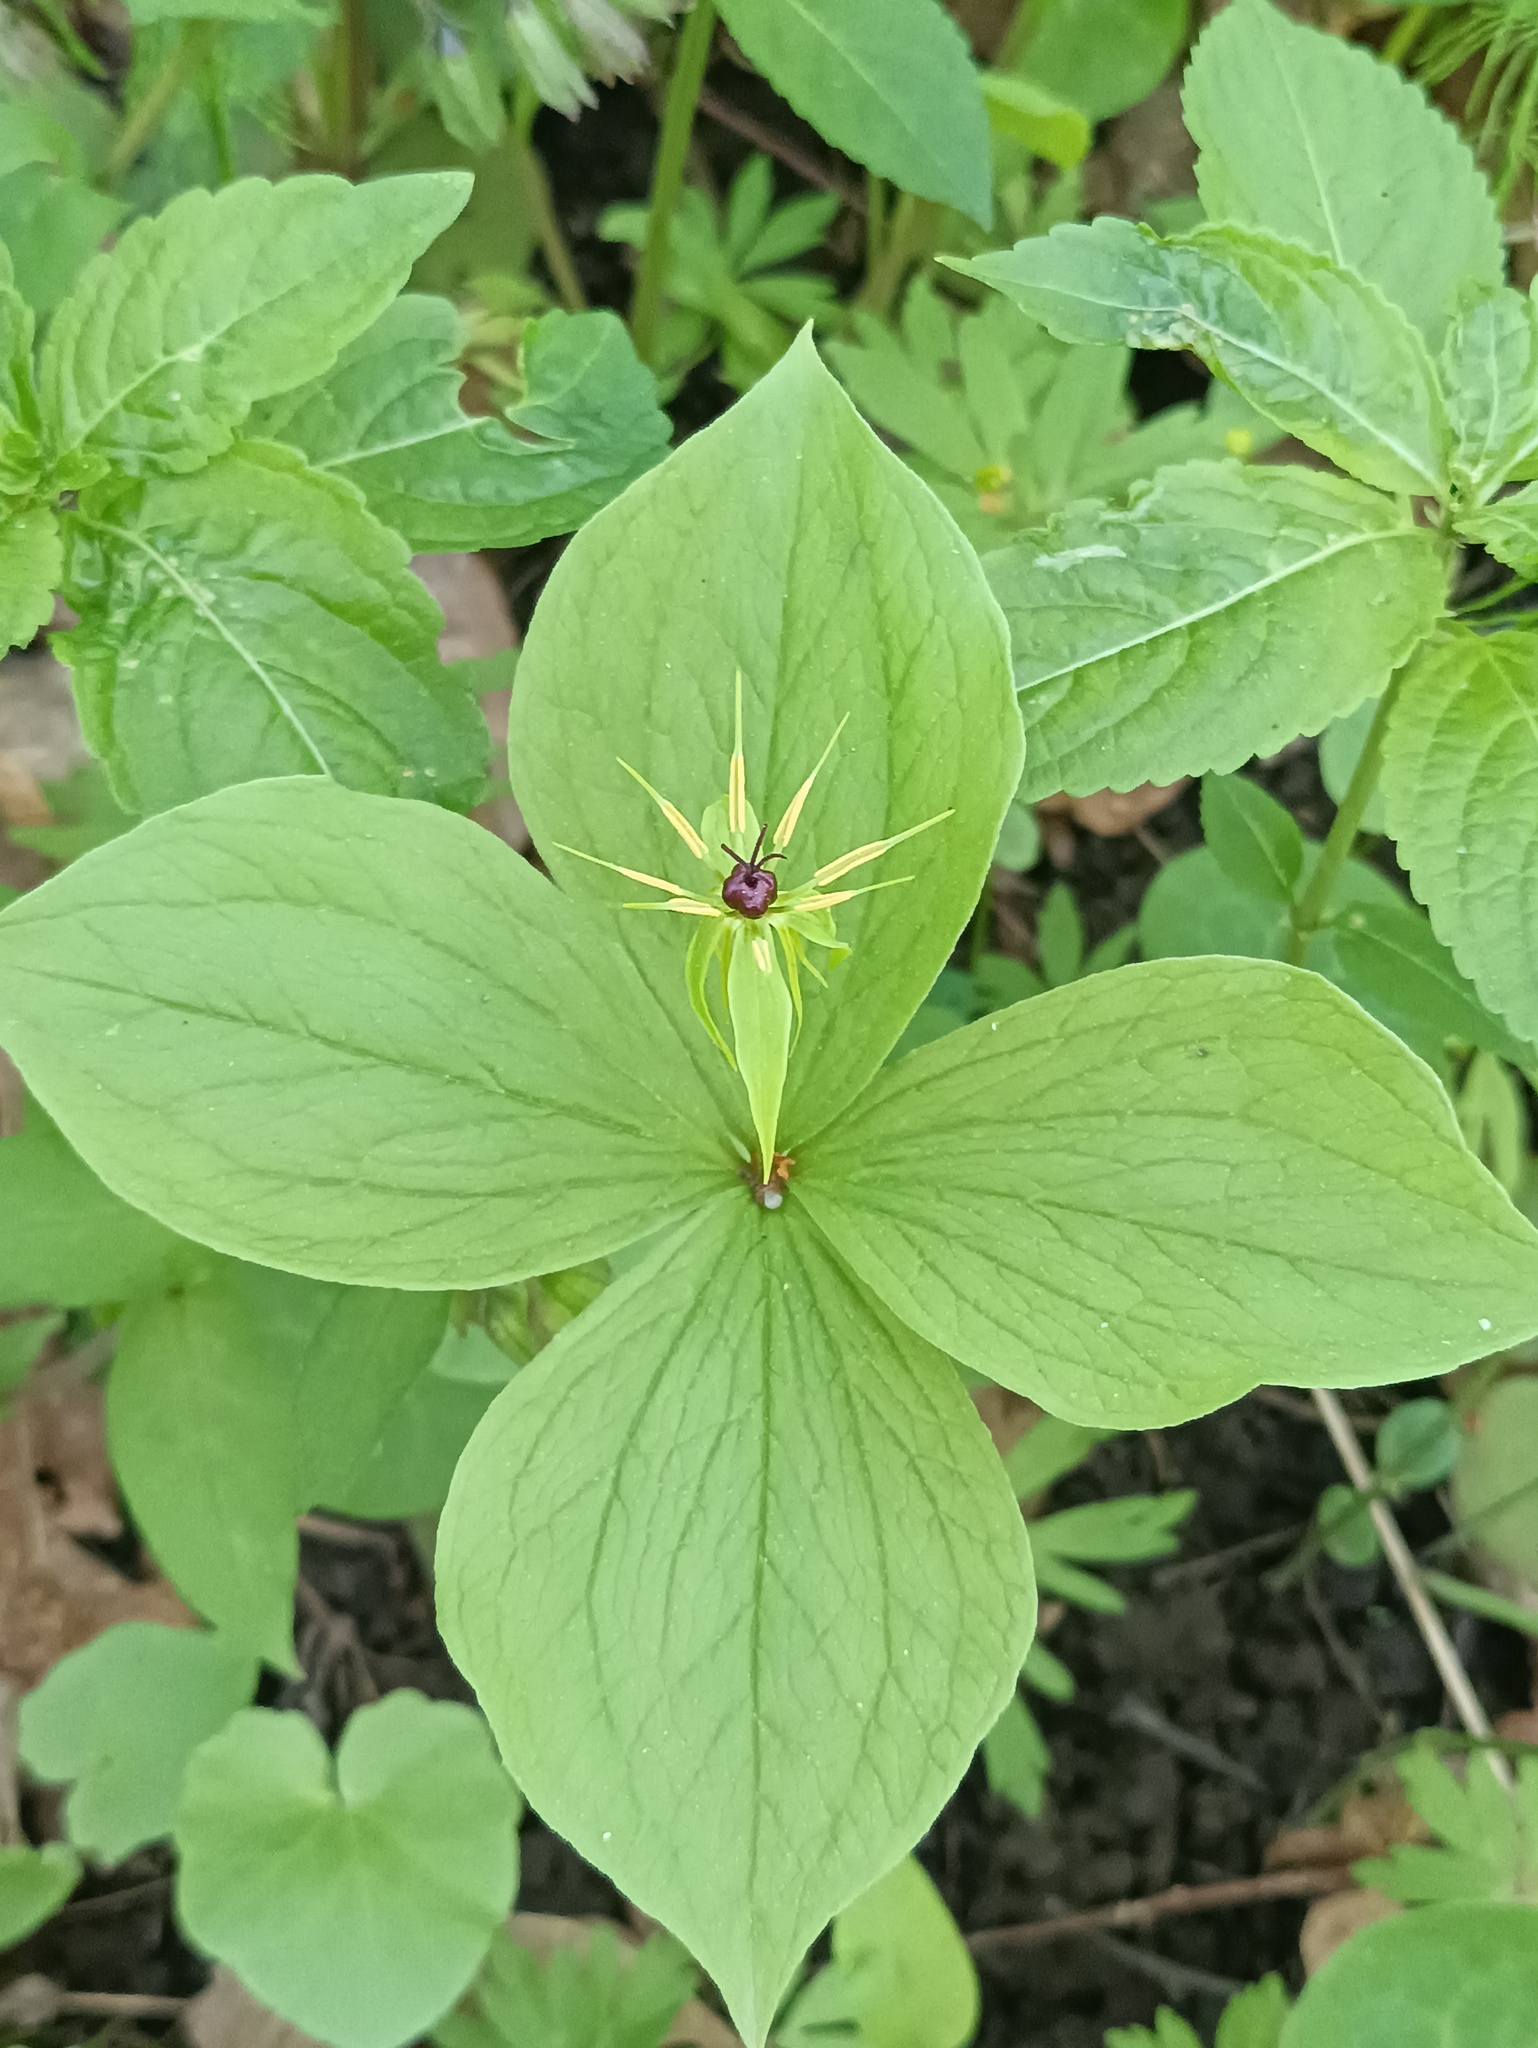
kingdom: Plantae
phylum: Tracheophyta
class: Liliopsida
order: Liliales
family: Melanthiaceae
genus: Paris
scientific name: Paris quadrifolia
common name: Herb-paris
